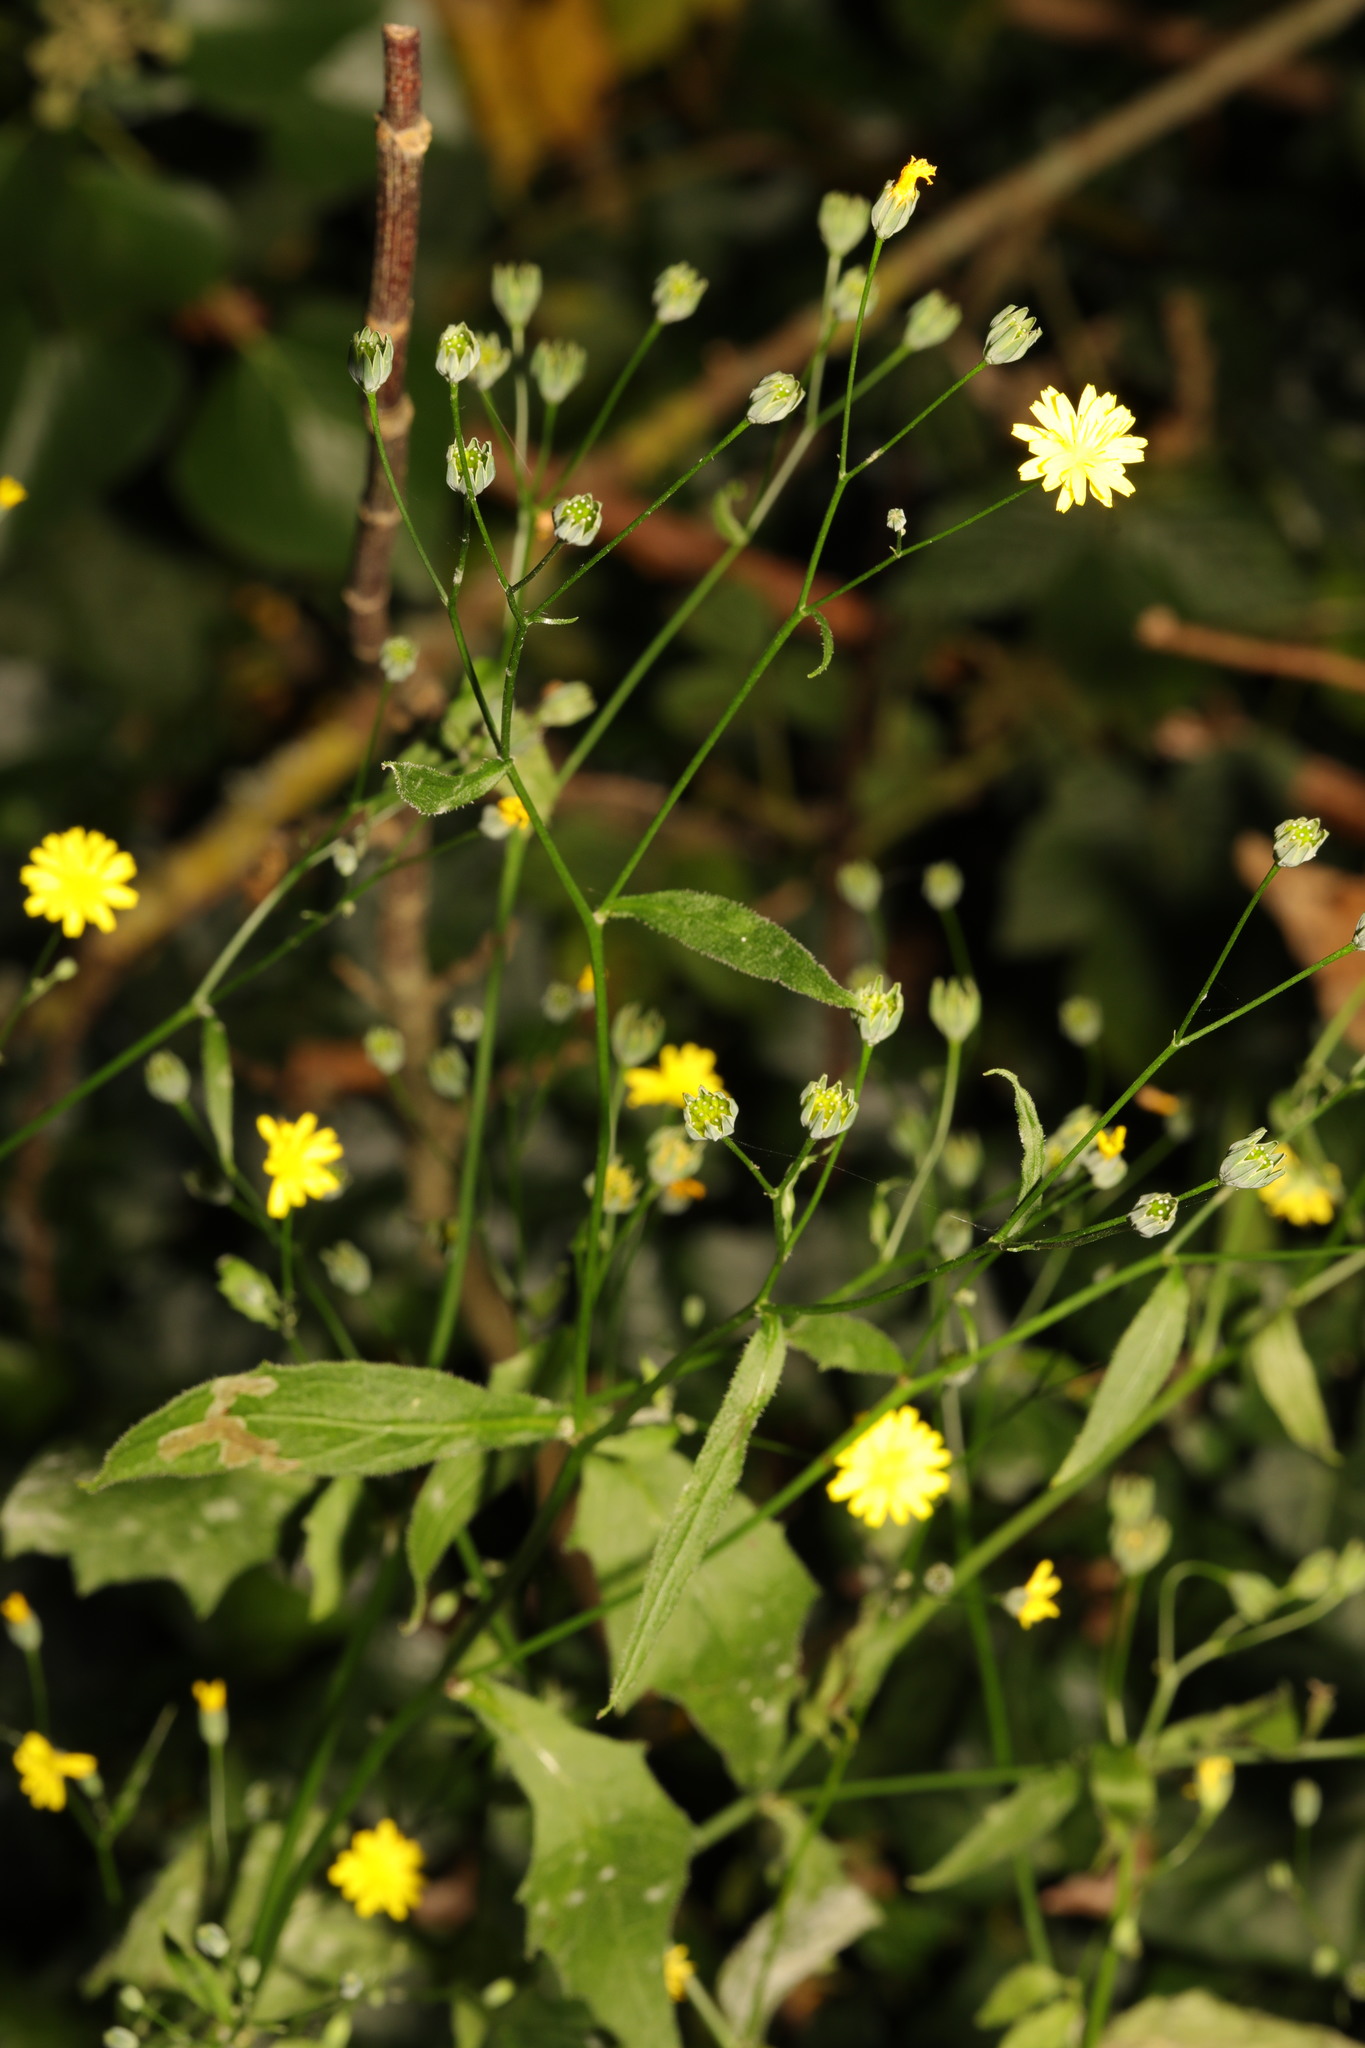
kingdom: Plantae
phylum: Tracheophyta
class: Magnoliopsida
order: Asterales
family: Asteraceae
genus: Lapsana
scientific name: Lapsana communis
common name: Nipplewort
